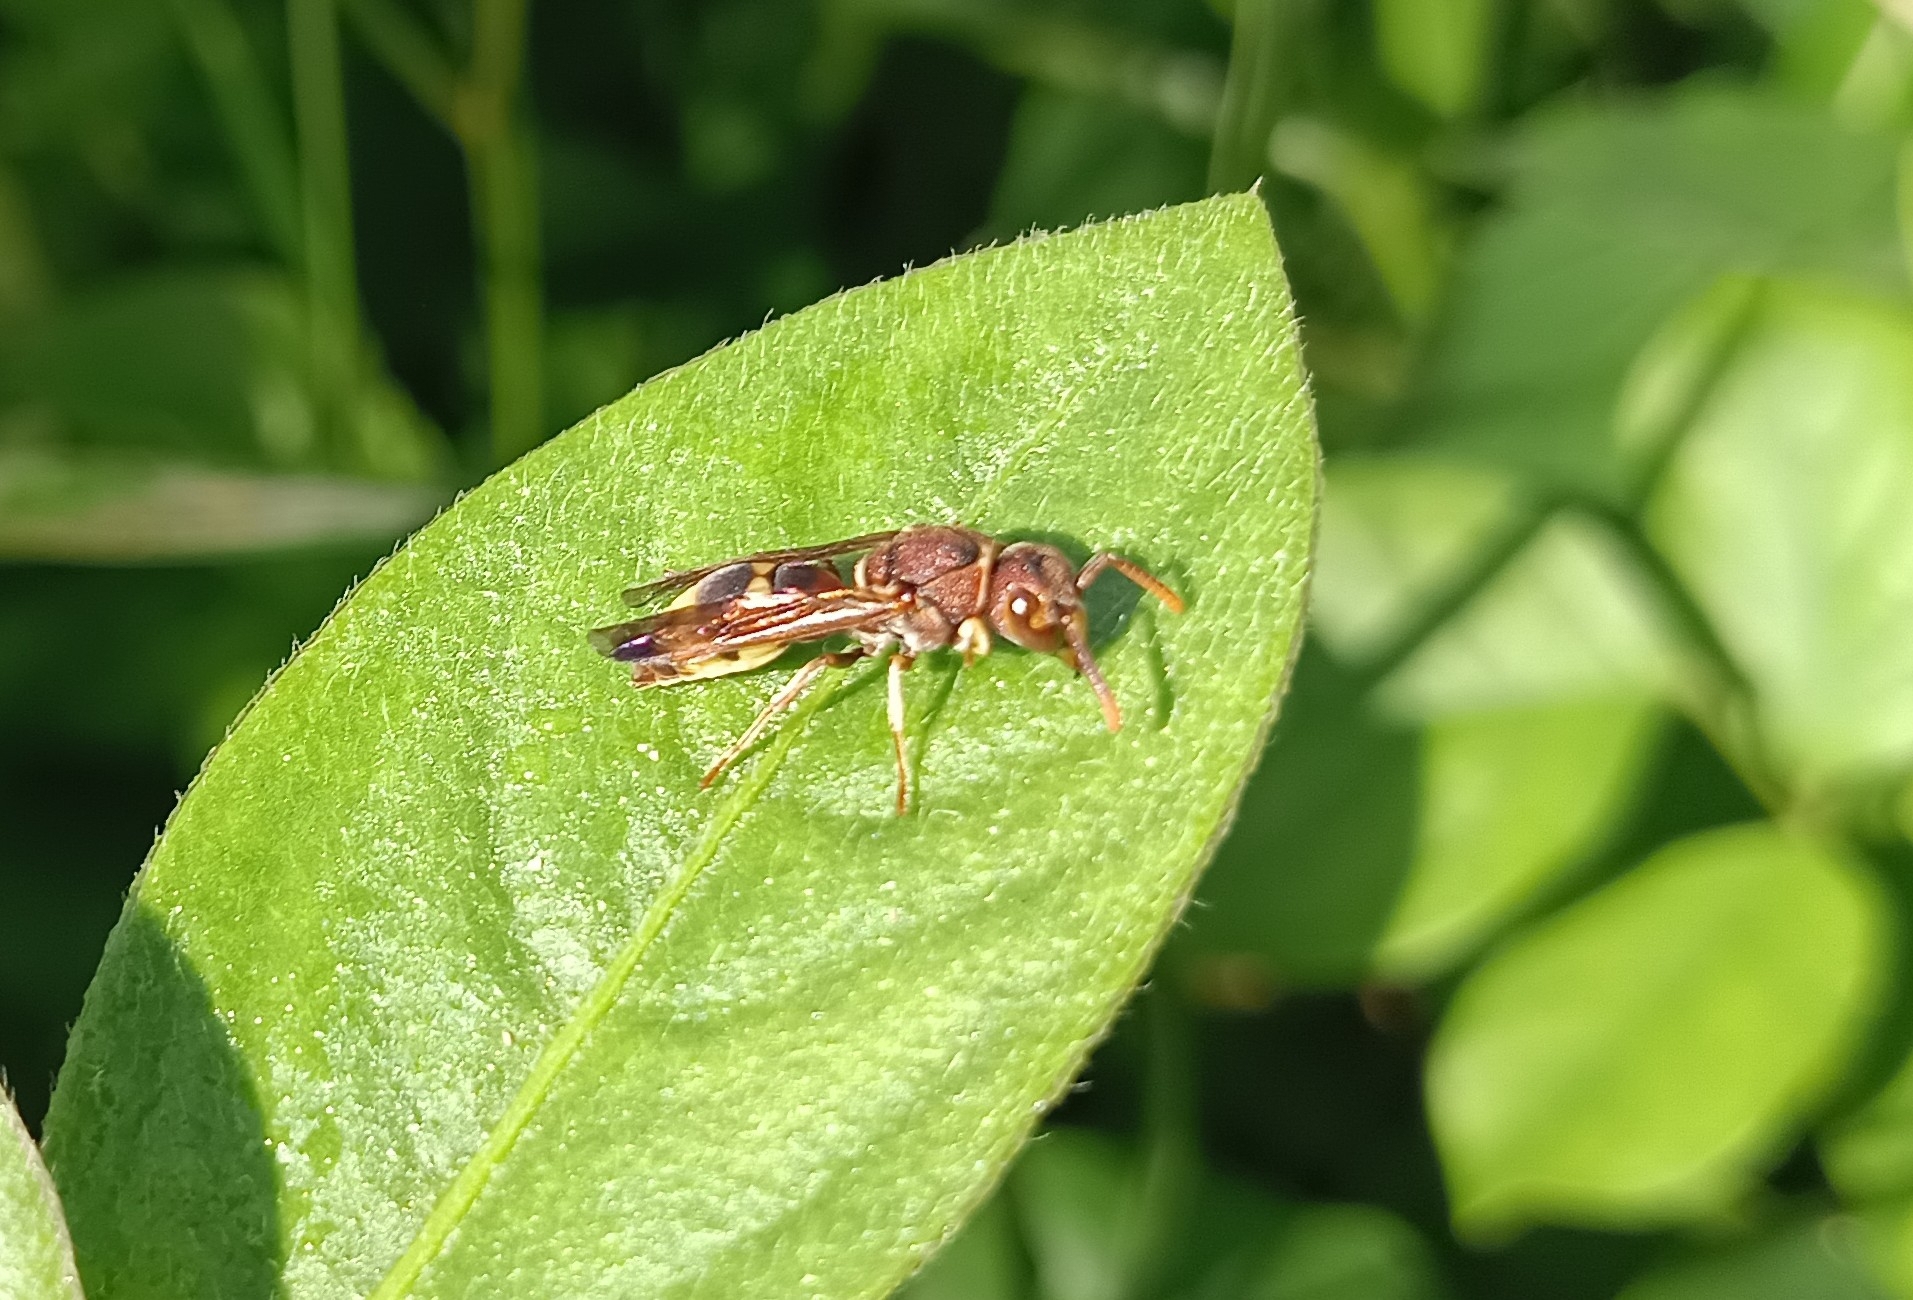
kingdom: Animalia
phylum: Arthropoda
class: Insecta
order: Hymenoptera
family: Eumenidae
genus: Antodynerus
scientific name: Antodynerus punctatipennis
